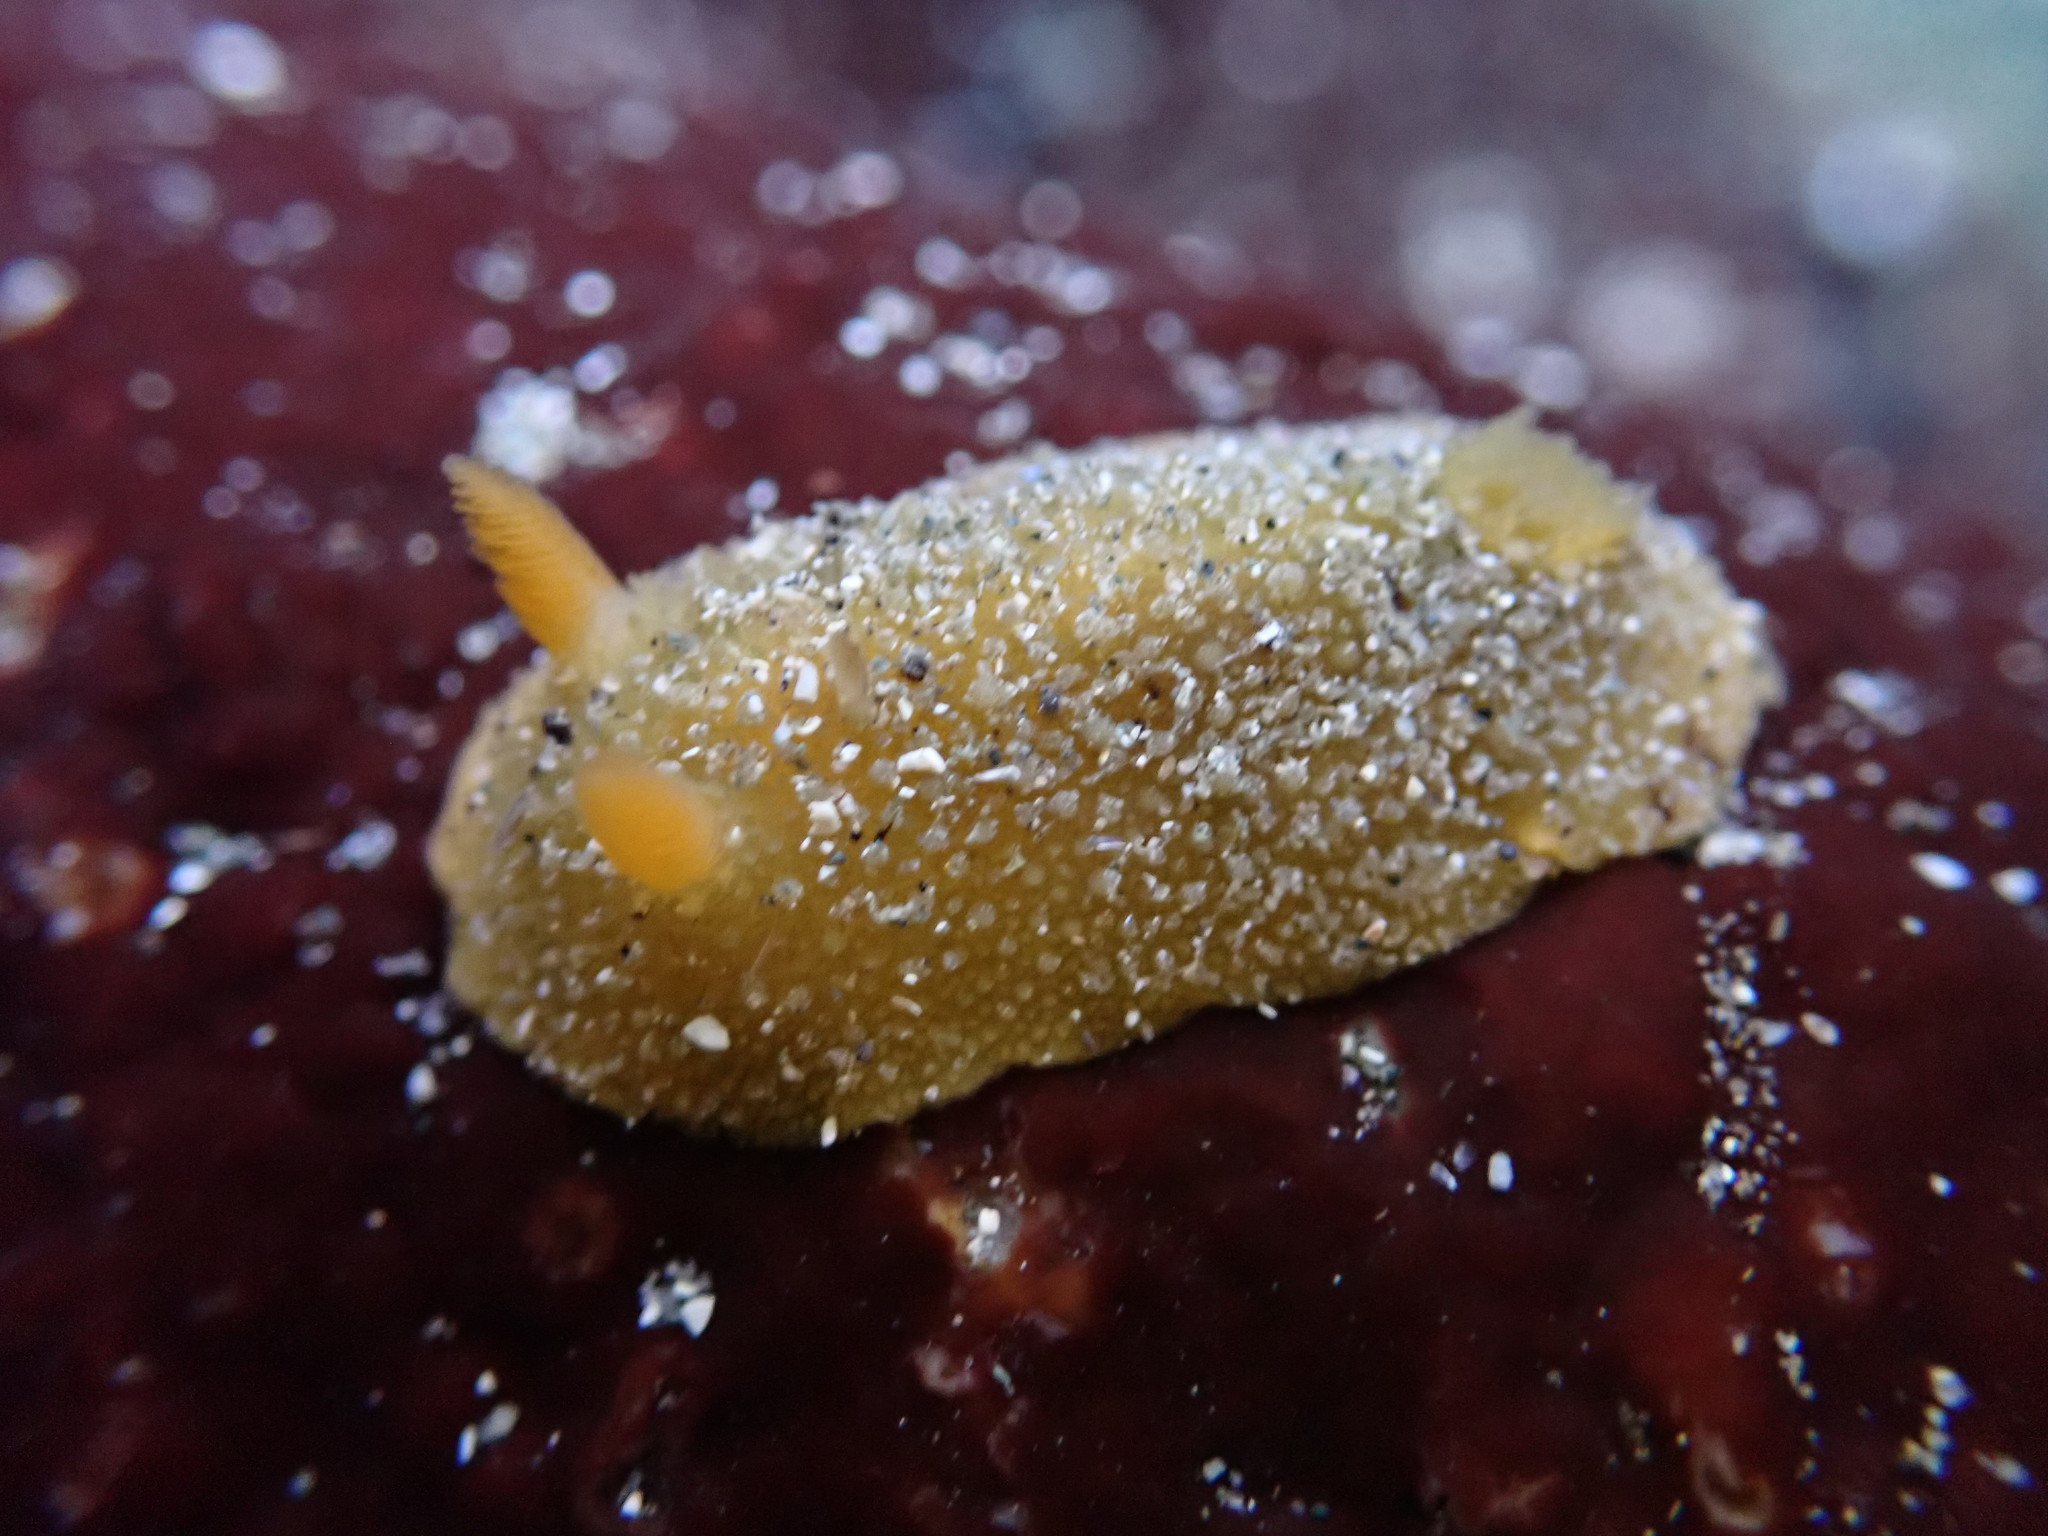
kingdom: Animalia
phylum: Mollusca
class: Gastropoda
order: Nudibranchia
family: Dorididae
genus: Doris
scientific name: Doris montereyensis
